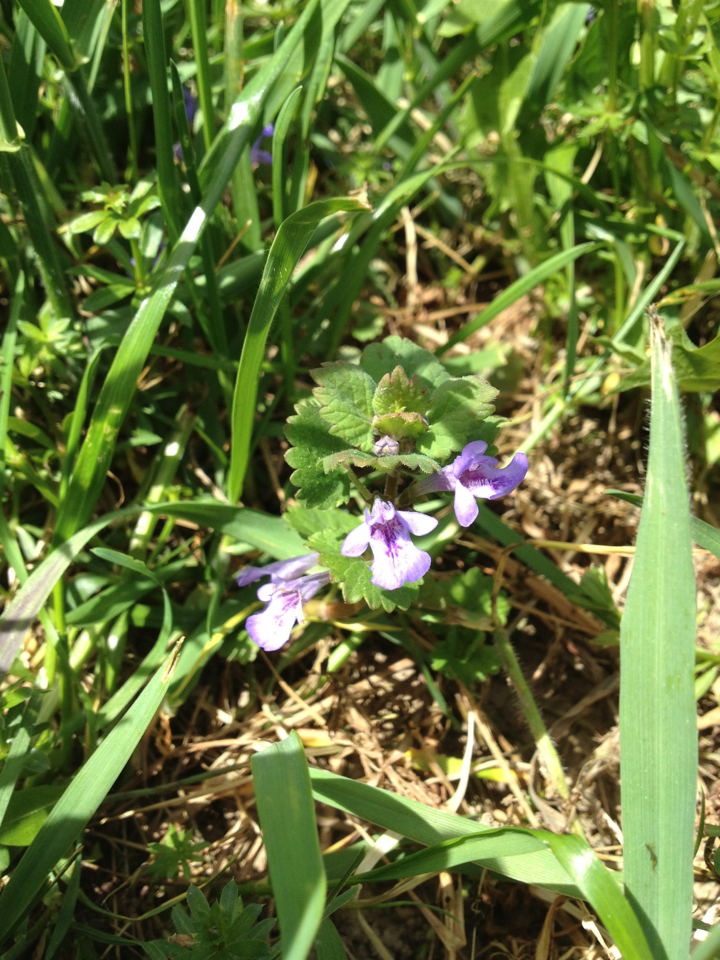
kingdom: Plantae
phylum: Tracheophyta
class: Magnoliopsida
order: Lamiales
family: Lamiaceae
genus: Glechoma
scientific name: Glechoma hederacea
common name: Ground ivy
